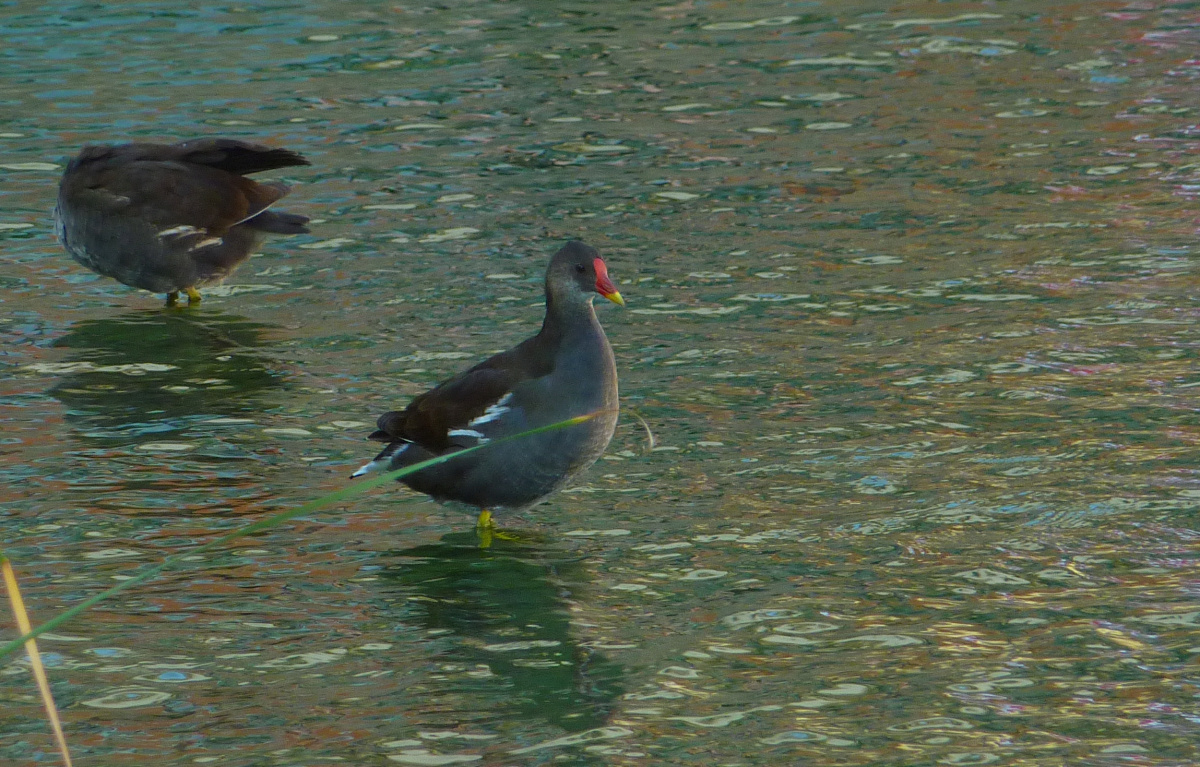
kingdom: Animalia
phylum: Chordata
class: Aves
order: Gruiformes
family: Rallidae
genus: Gallinula
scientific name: Gallinula chloropus
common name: Common moorhen
